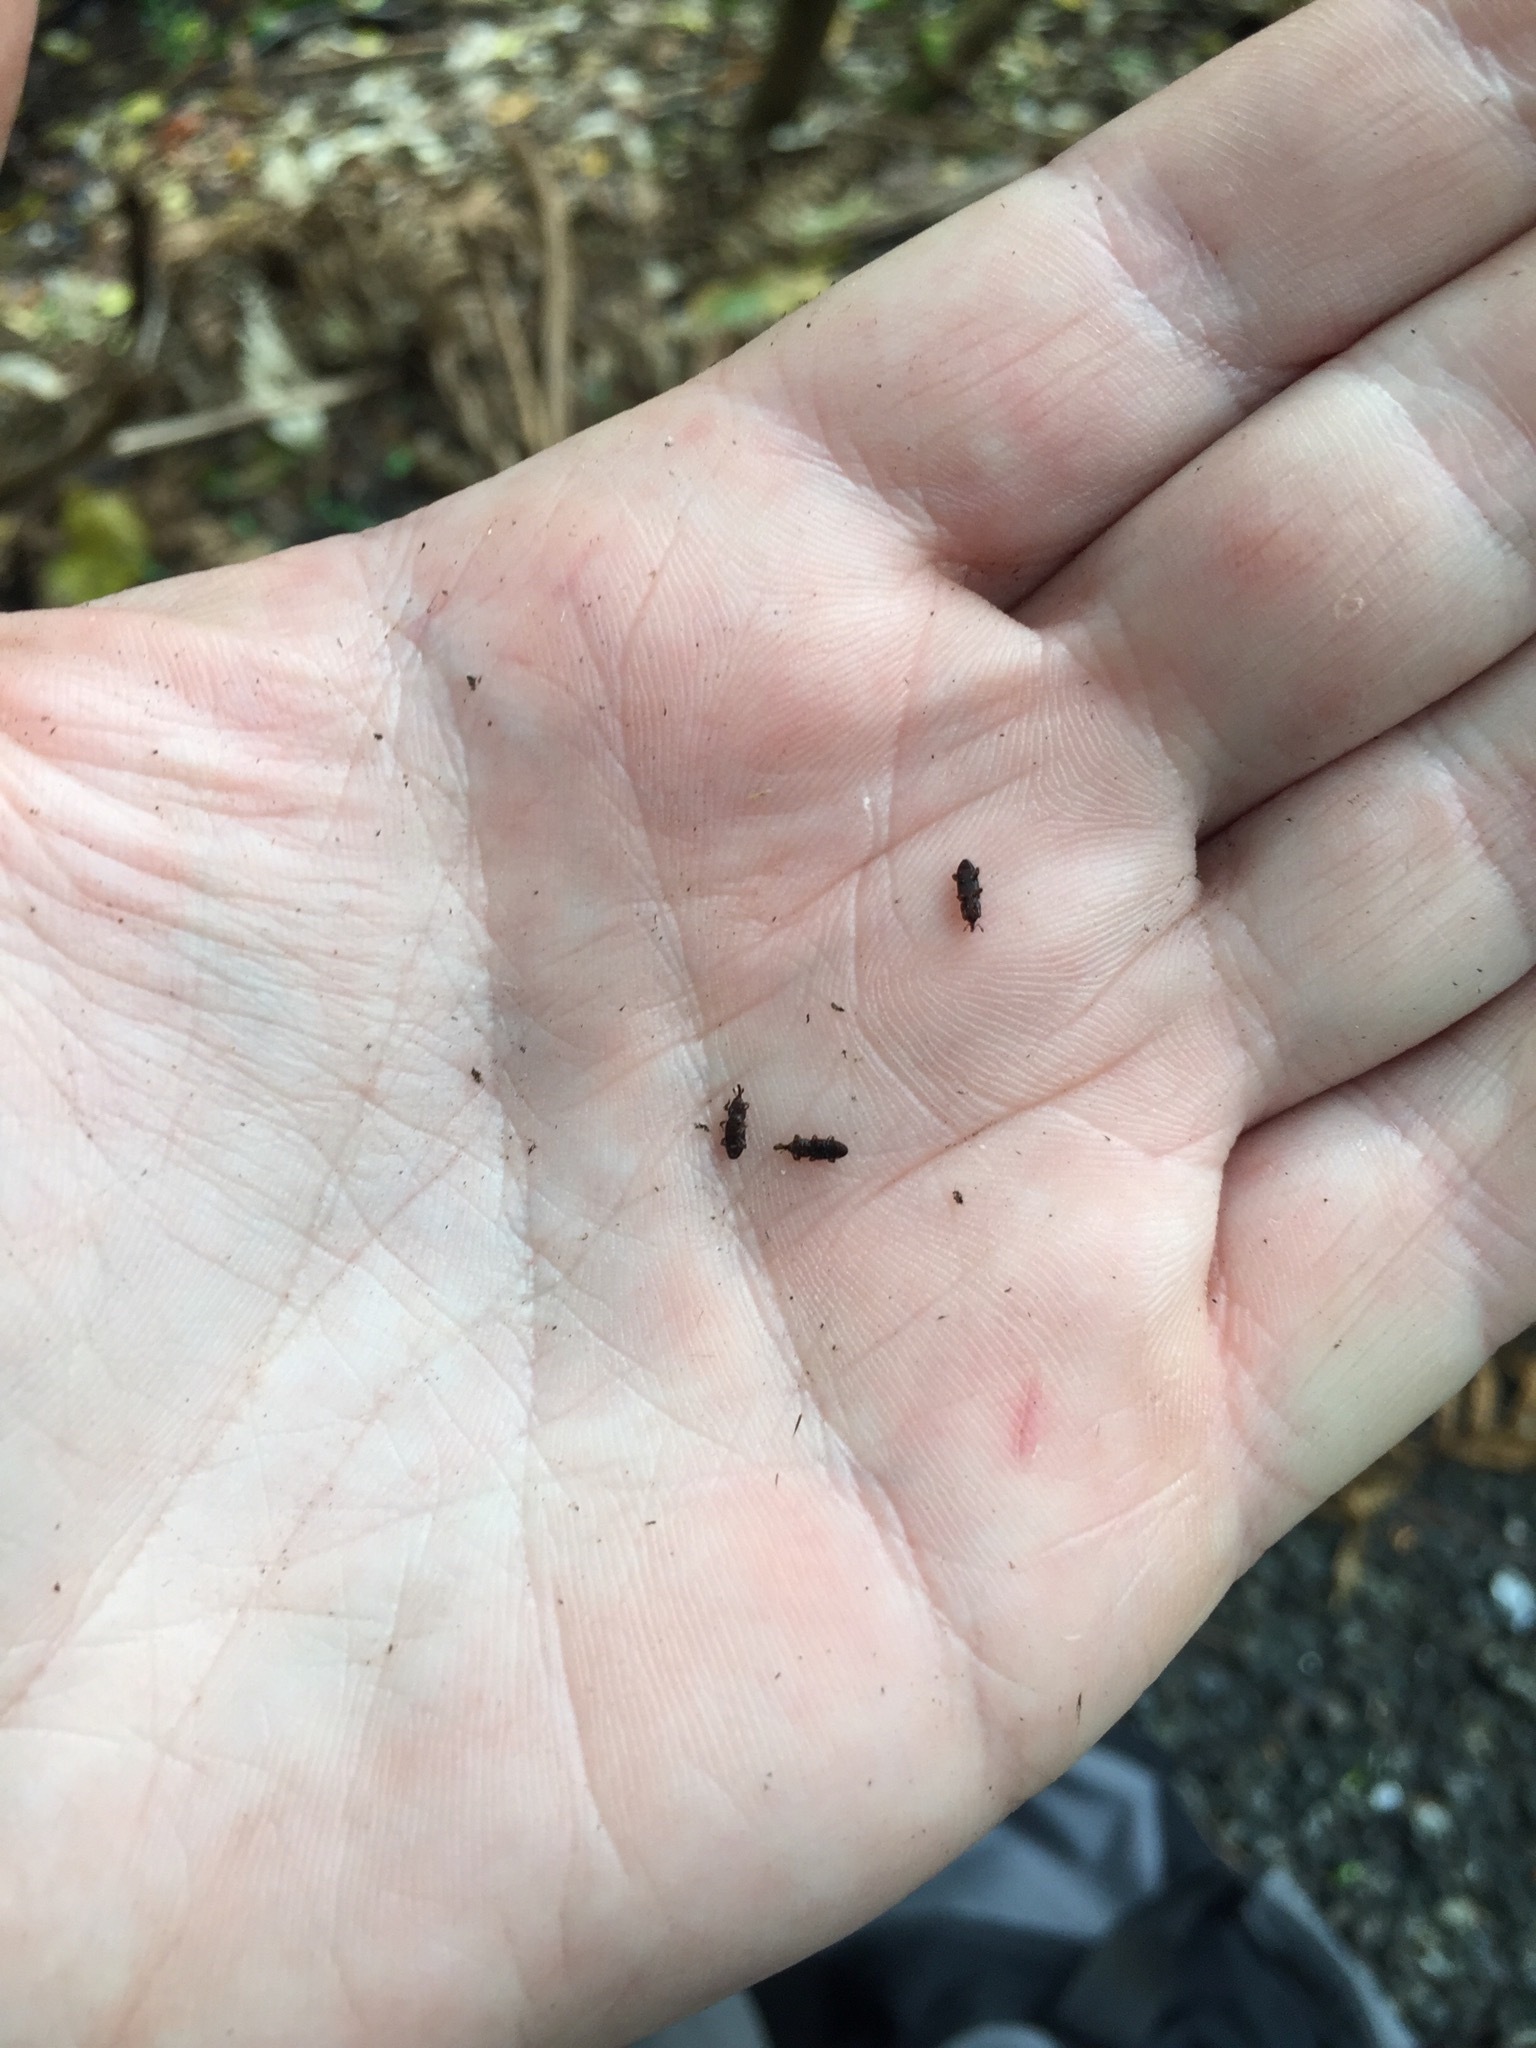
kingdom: Animalia
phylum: Arthropoda
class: Insecta
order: Coleoptera
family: Curculionidae
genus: Pogonorhinus
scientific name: Pogonorhinus opacus
